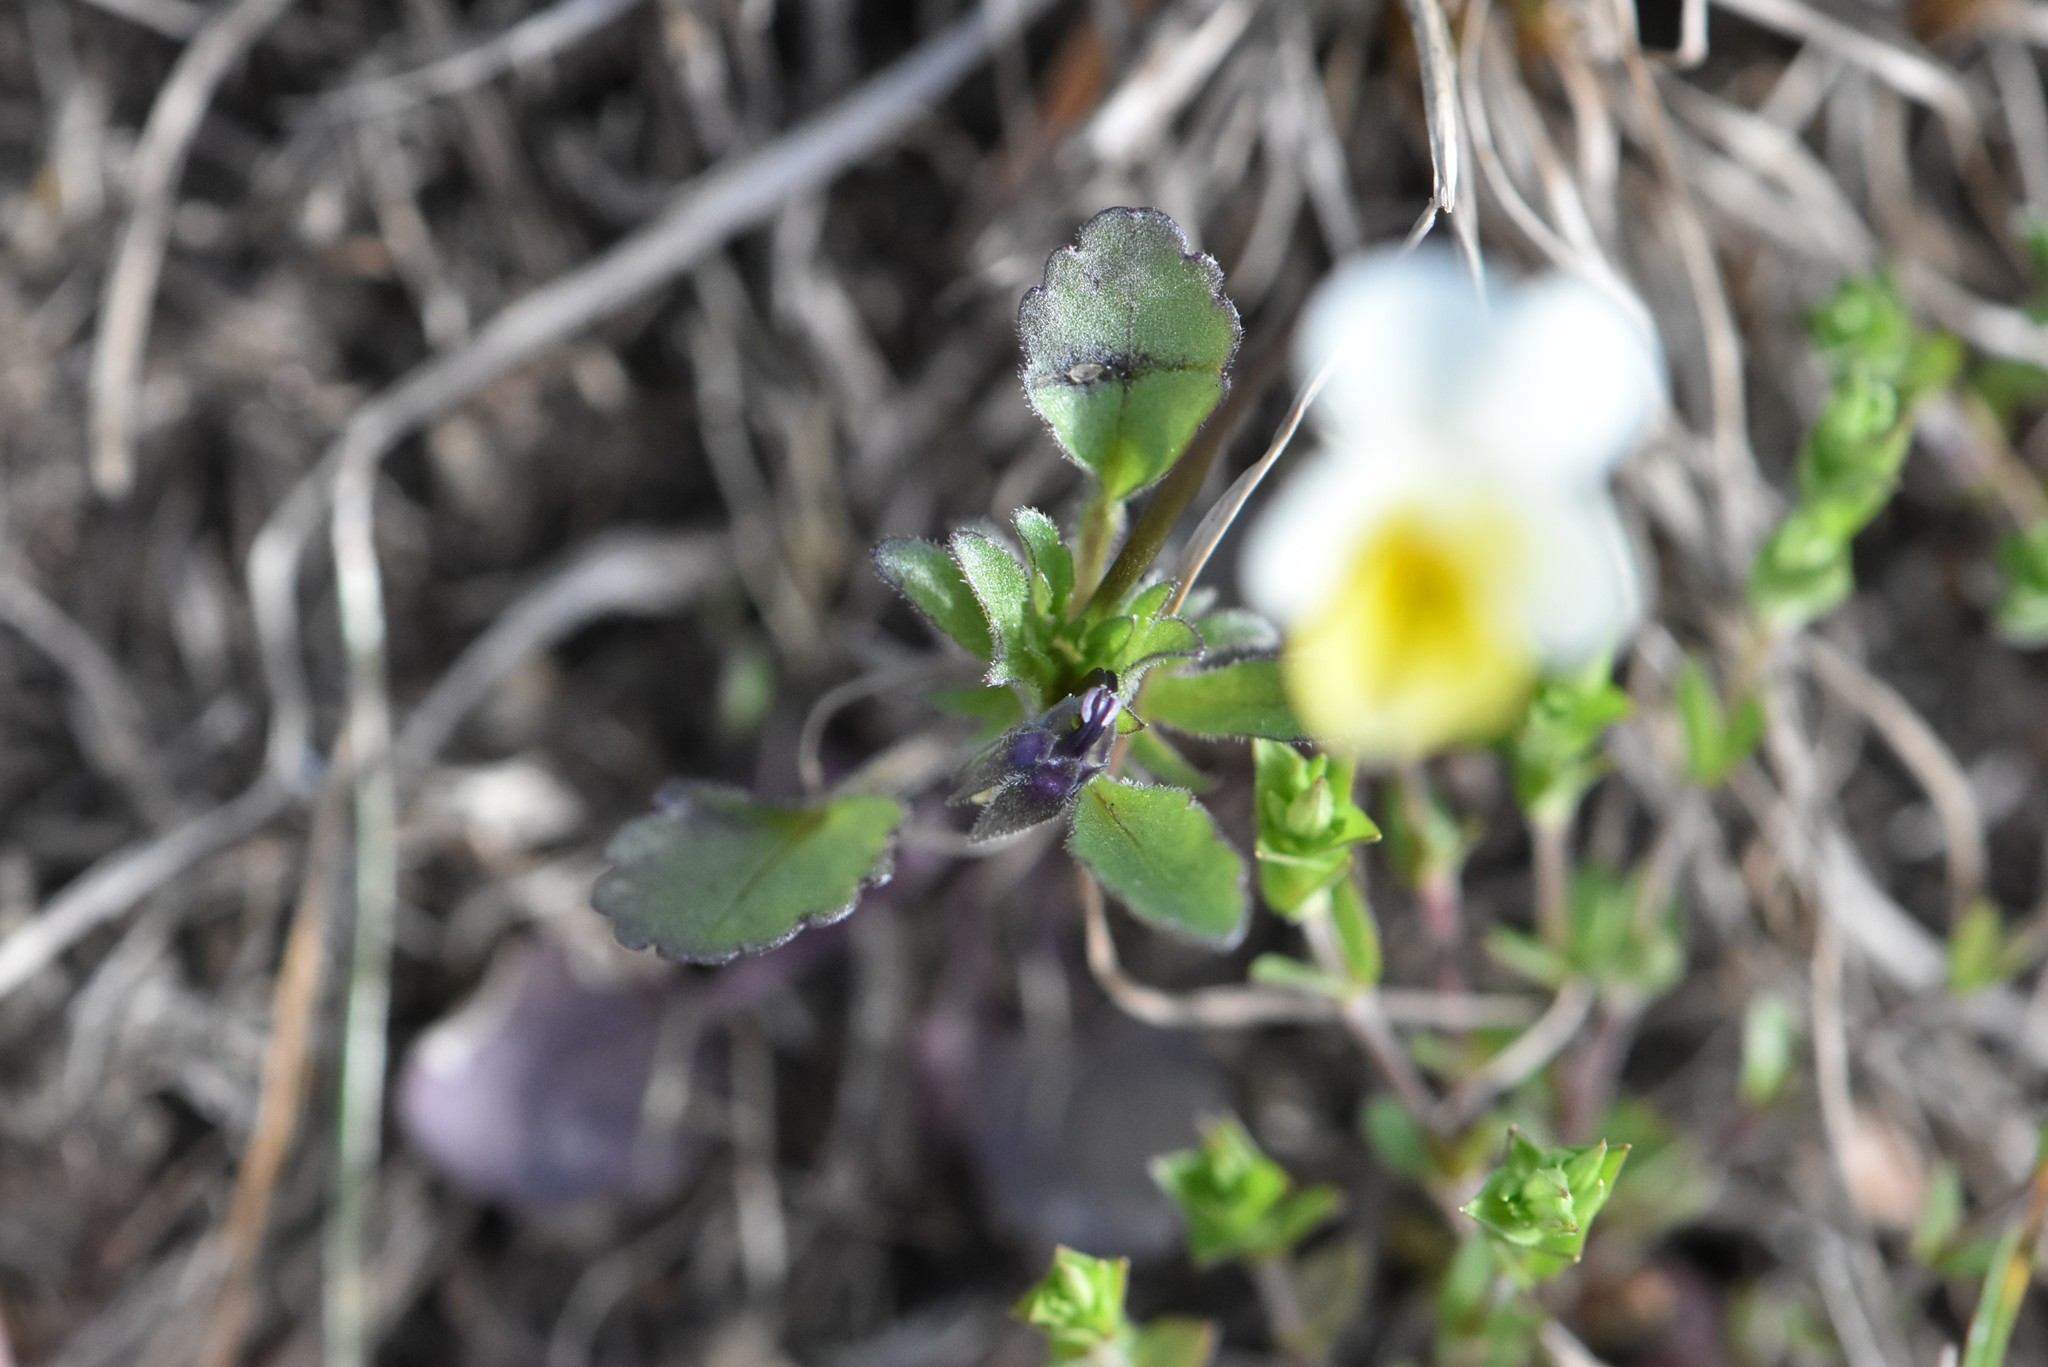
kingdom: Plantae
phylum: Tracheophyta
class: Magnoliopsida
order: Malpighiales
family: Violaceae
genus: Viola
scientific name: Viola arvensis
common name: Field pansy
